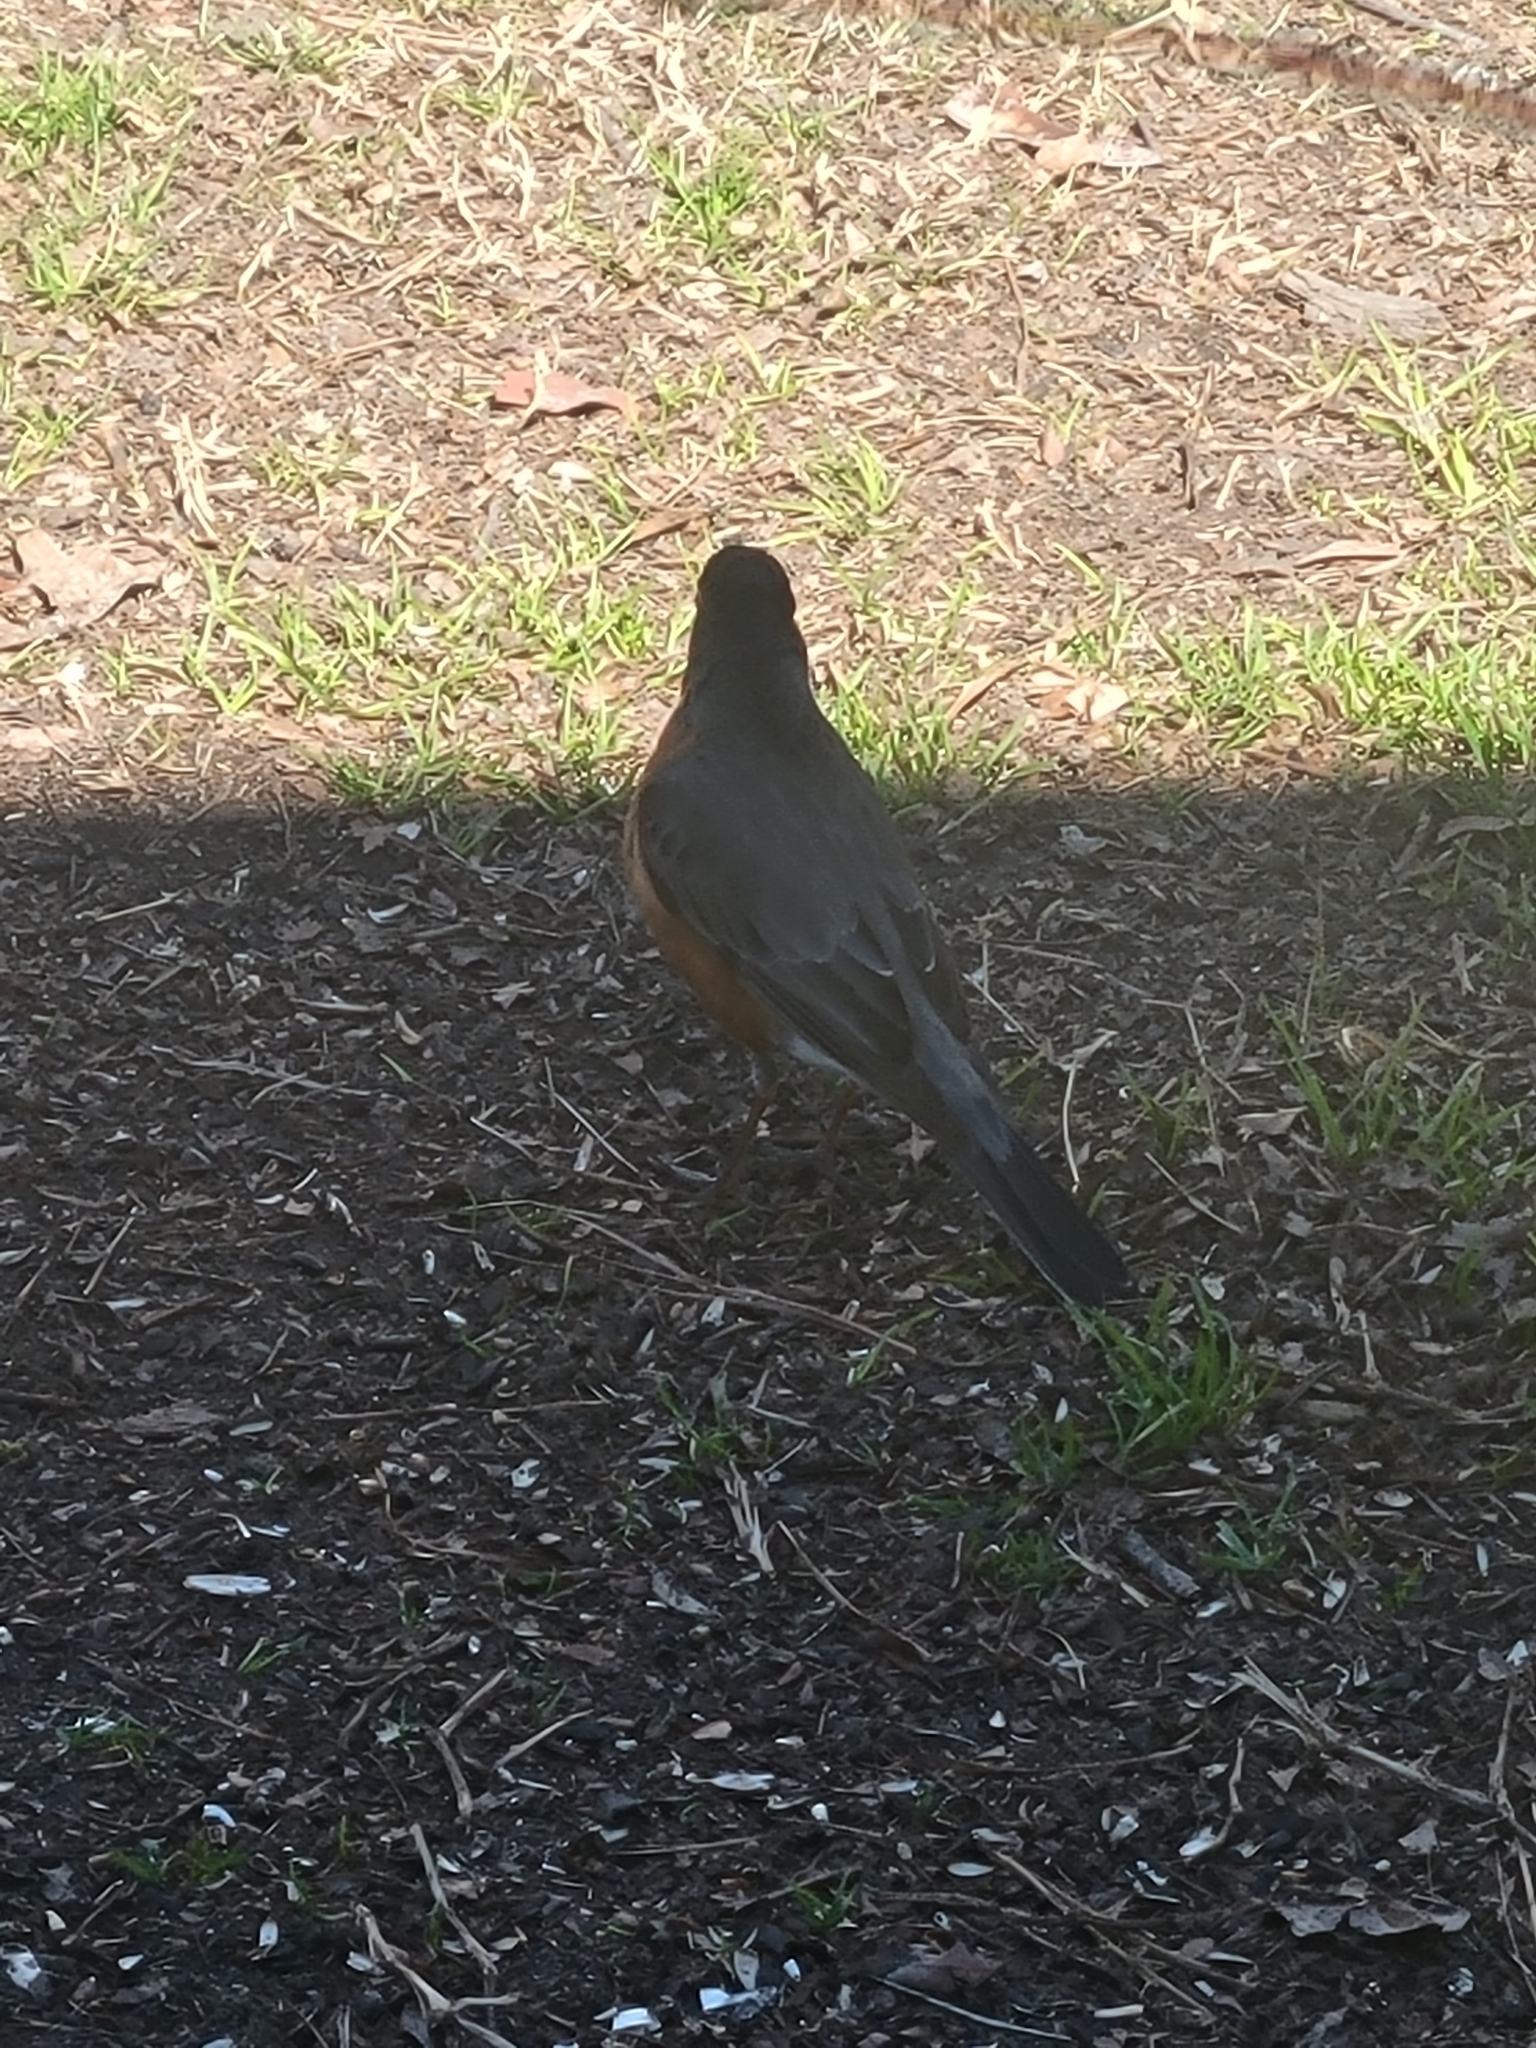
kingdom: Animalia
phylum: Chordata
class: Aves
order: Passeriformes
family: Turdidae
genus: Turdus
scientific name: Turdus migratorius
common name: American robin
